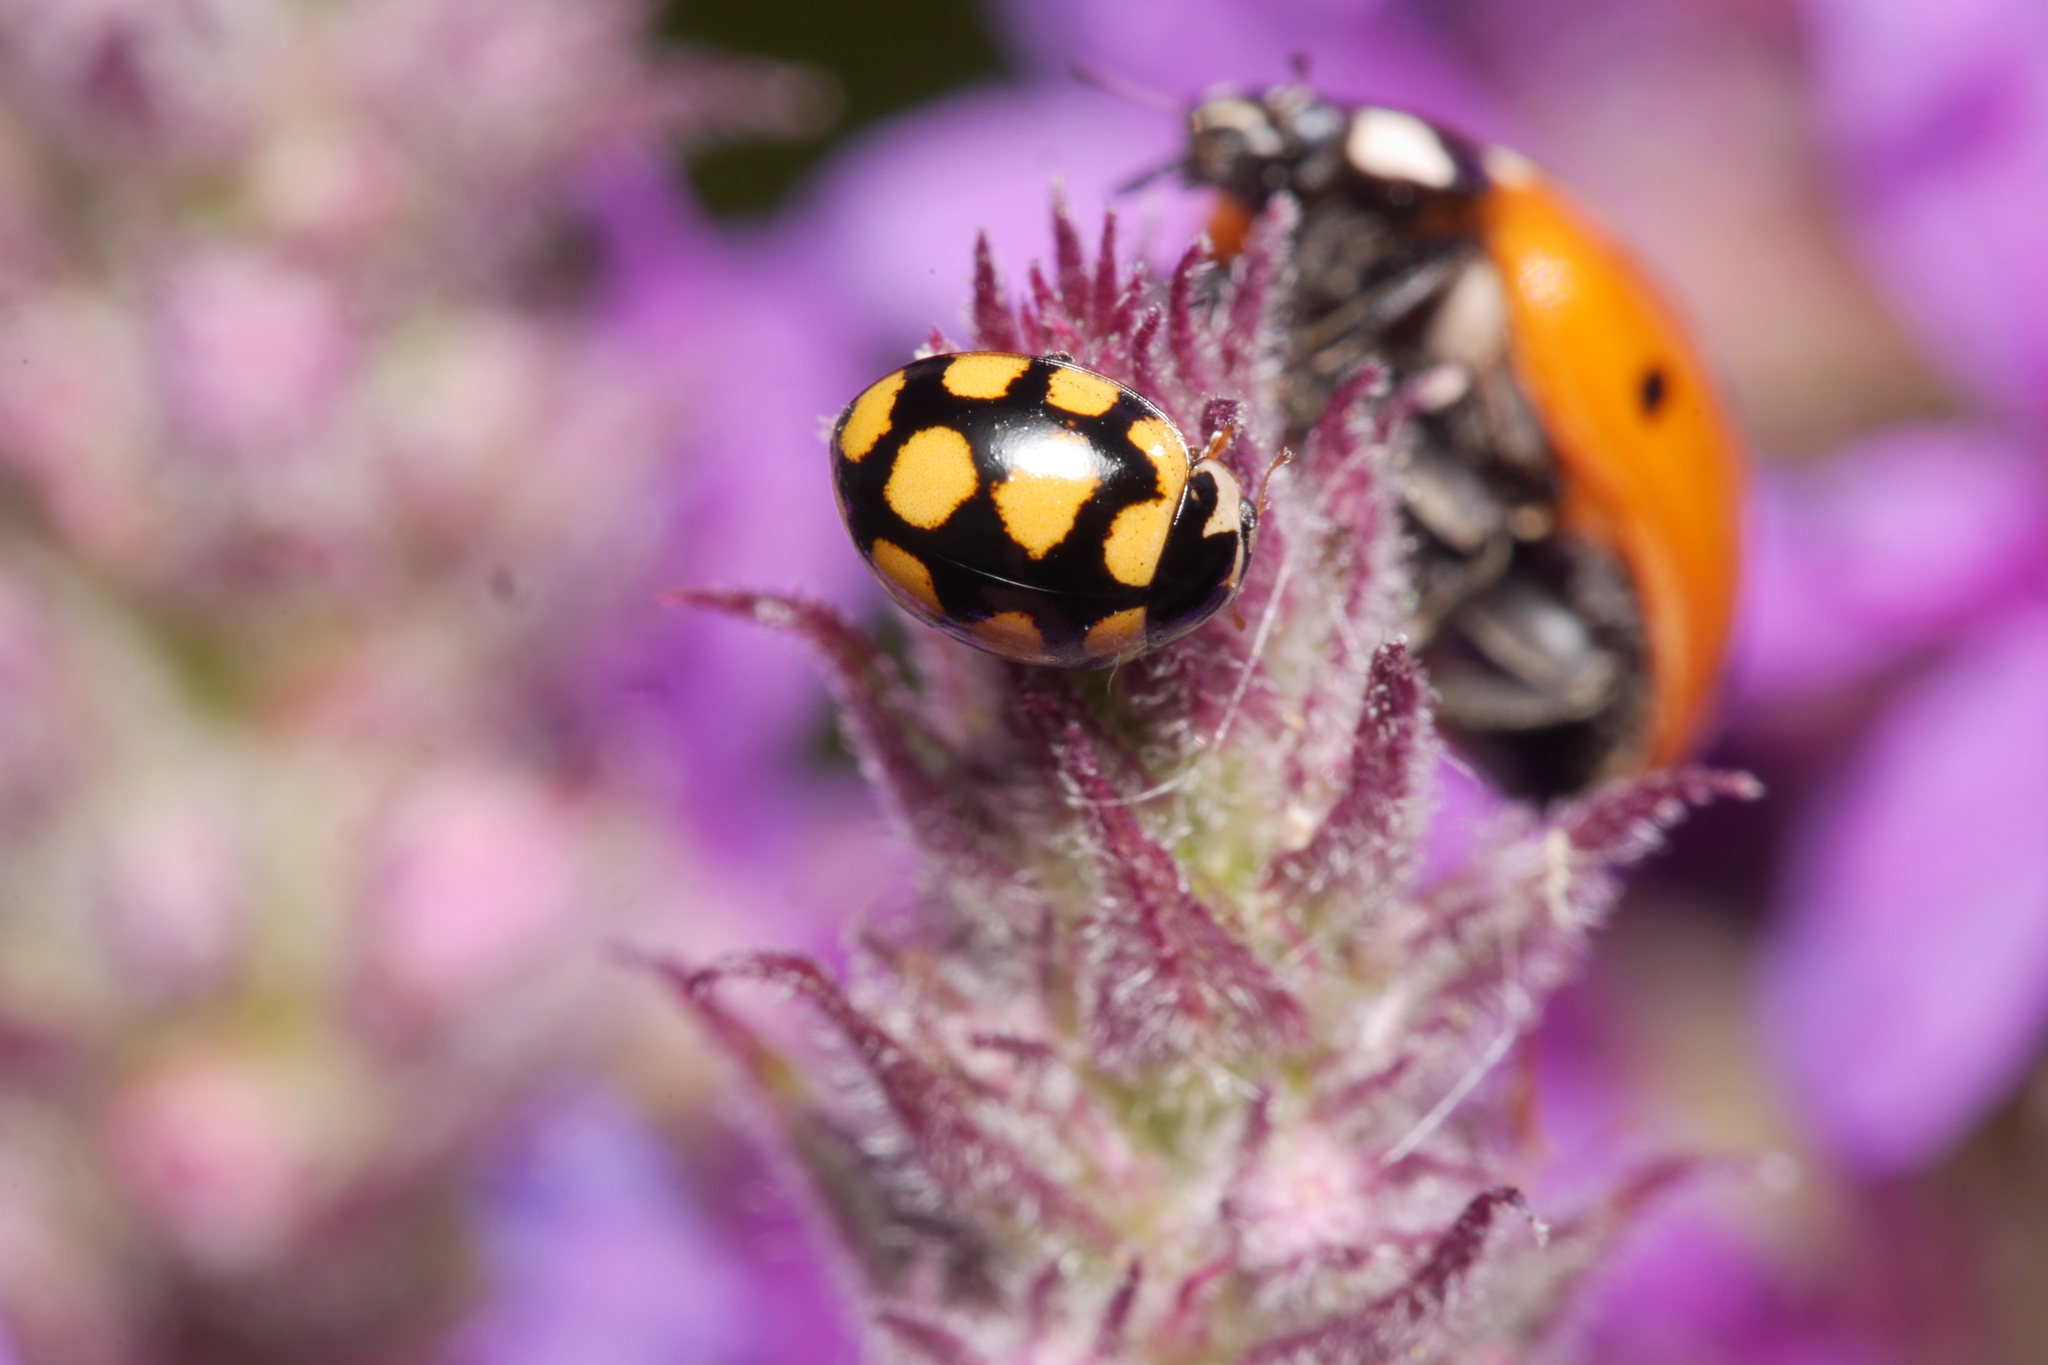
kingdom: Animalia
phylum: Arthropoda
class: Insecta
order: Coleoptera
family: Coccinellidae
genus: Coccinula
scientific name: Coccinula quatuordecimpustulata
